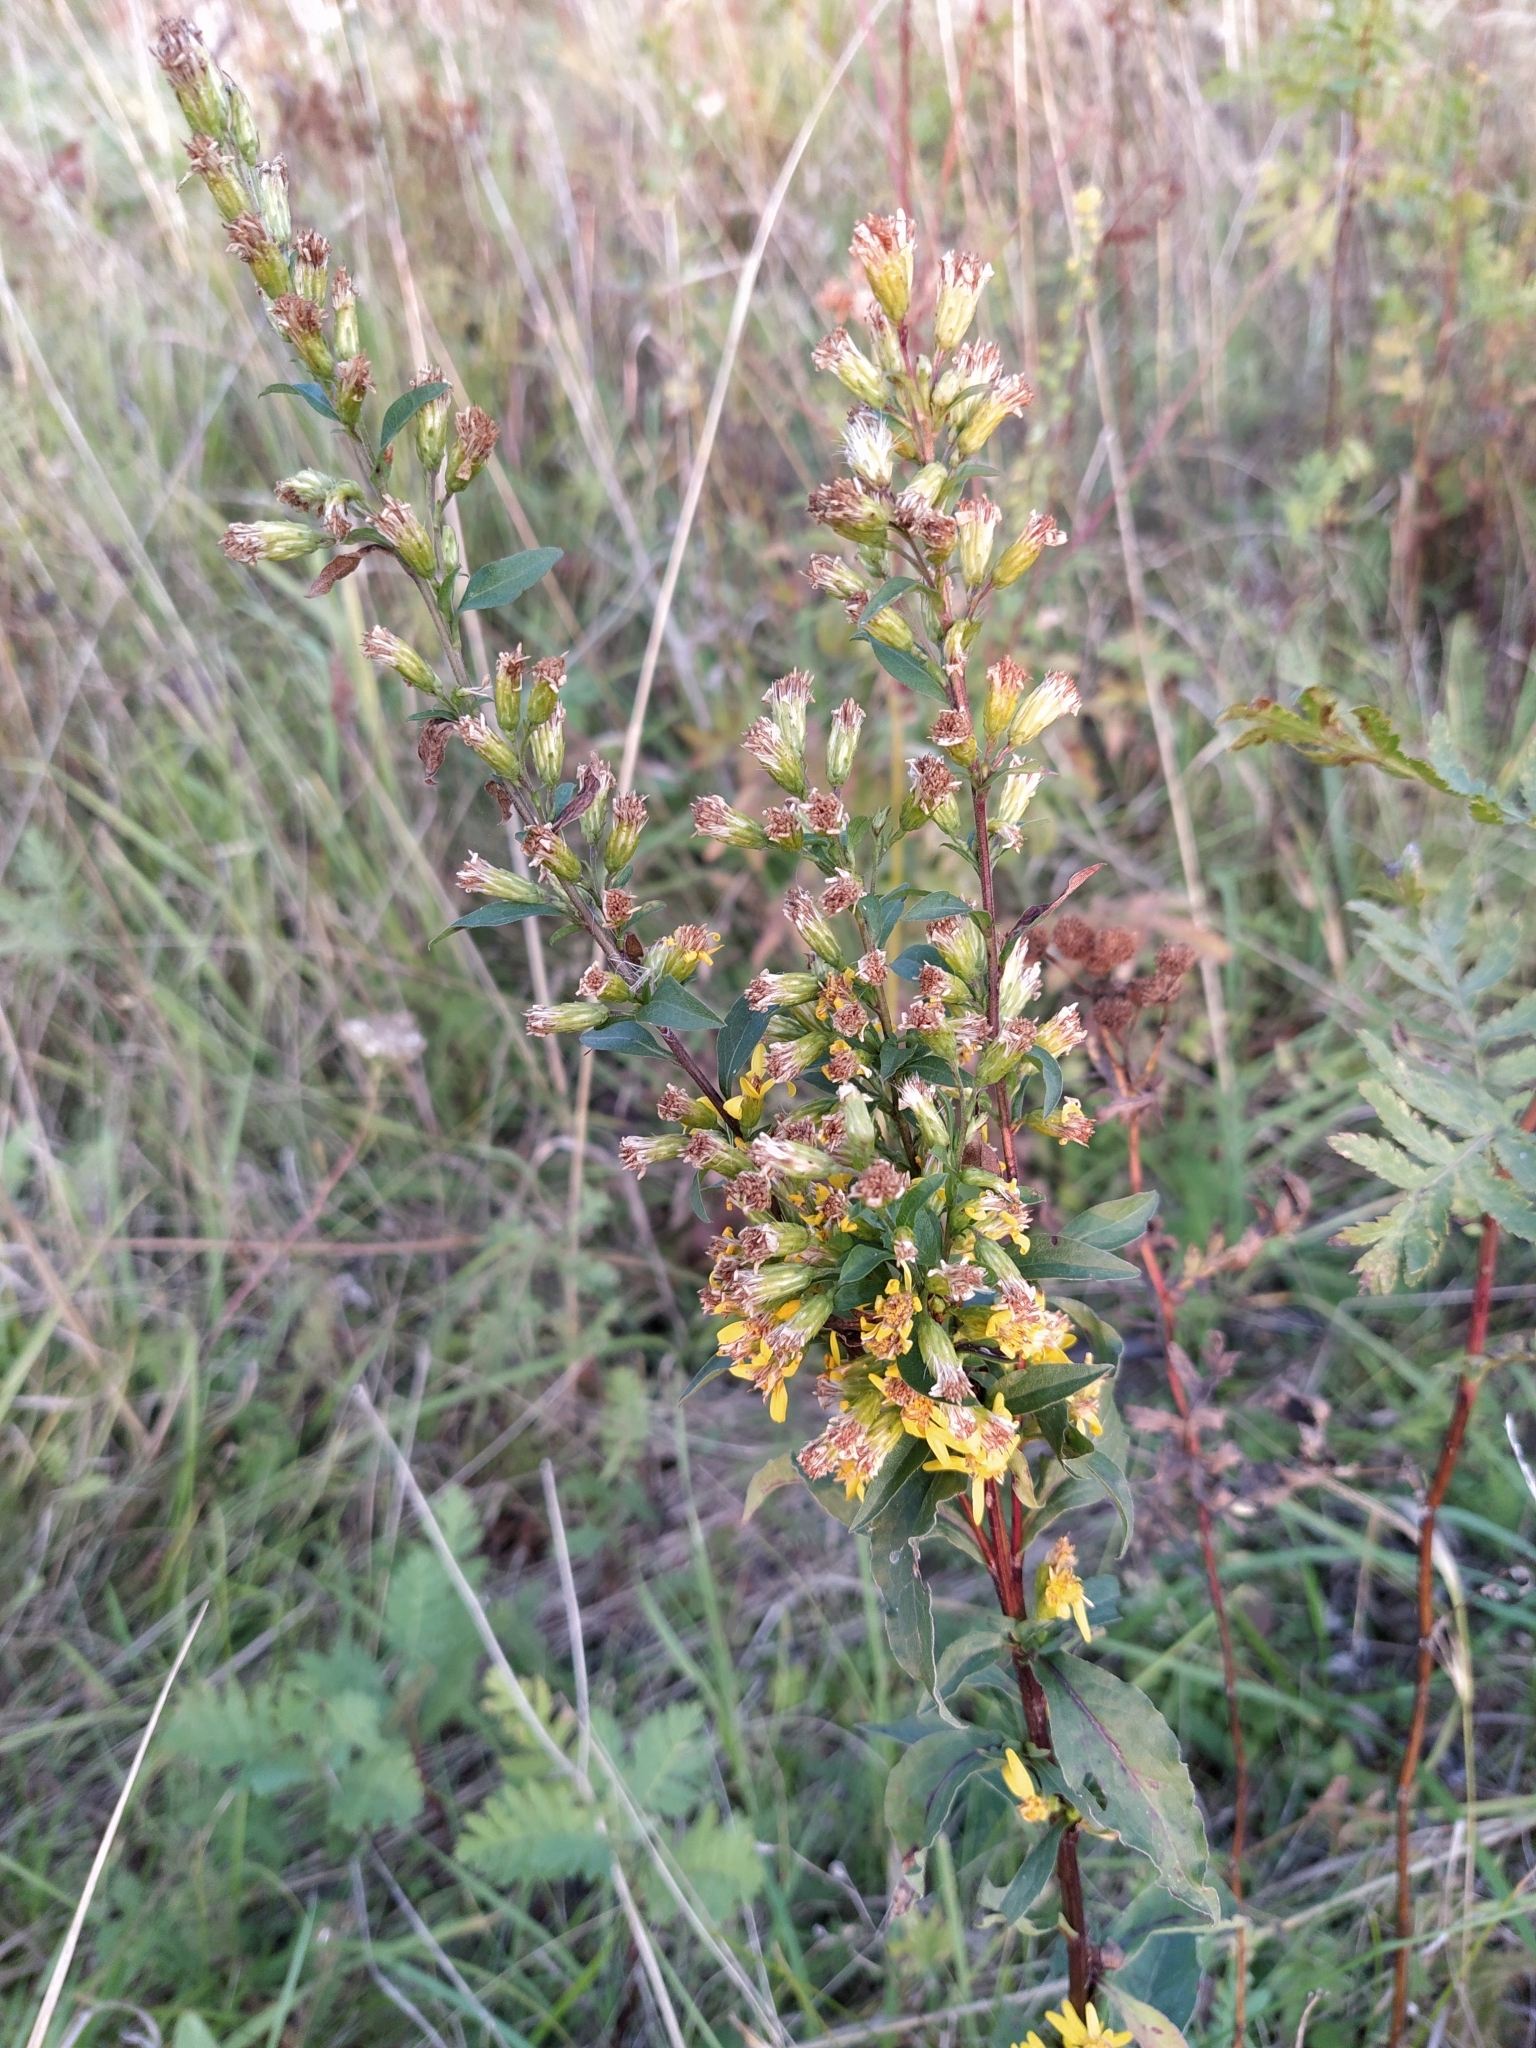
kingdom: Plantae
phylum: Tracheophyta
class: Magnoliopsida
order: Asterales
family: Asteraceae
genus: Solidago
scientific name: Solidago virgaurea
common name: Goldenrod
